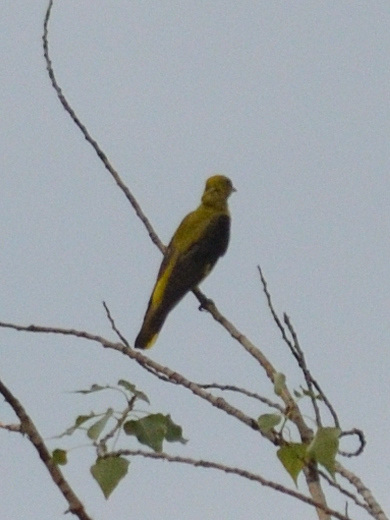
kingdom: Animalia
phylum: Chordata
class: Aves
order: Passeriformes
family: Oriolidae
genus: Oriolus
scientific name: Oriolus oriolus
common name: Eurasian golden oriole
